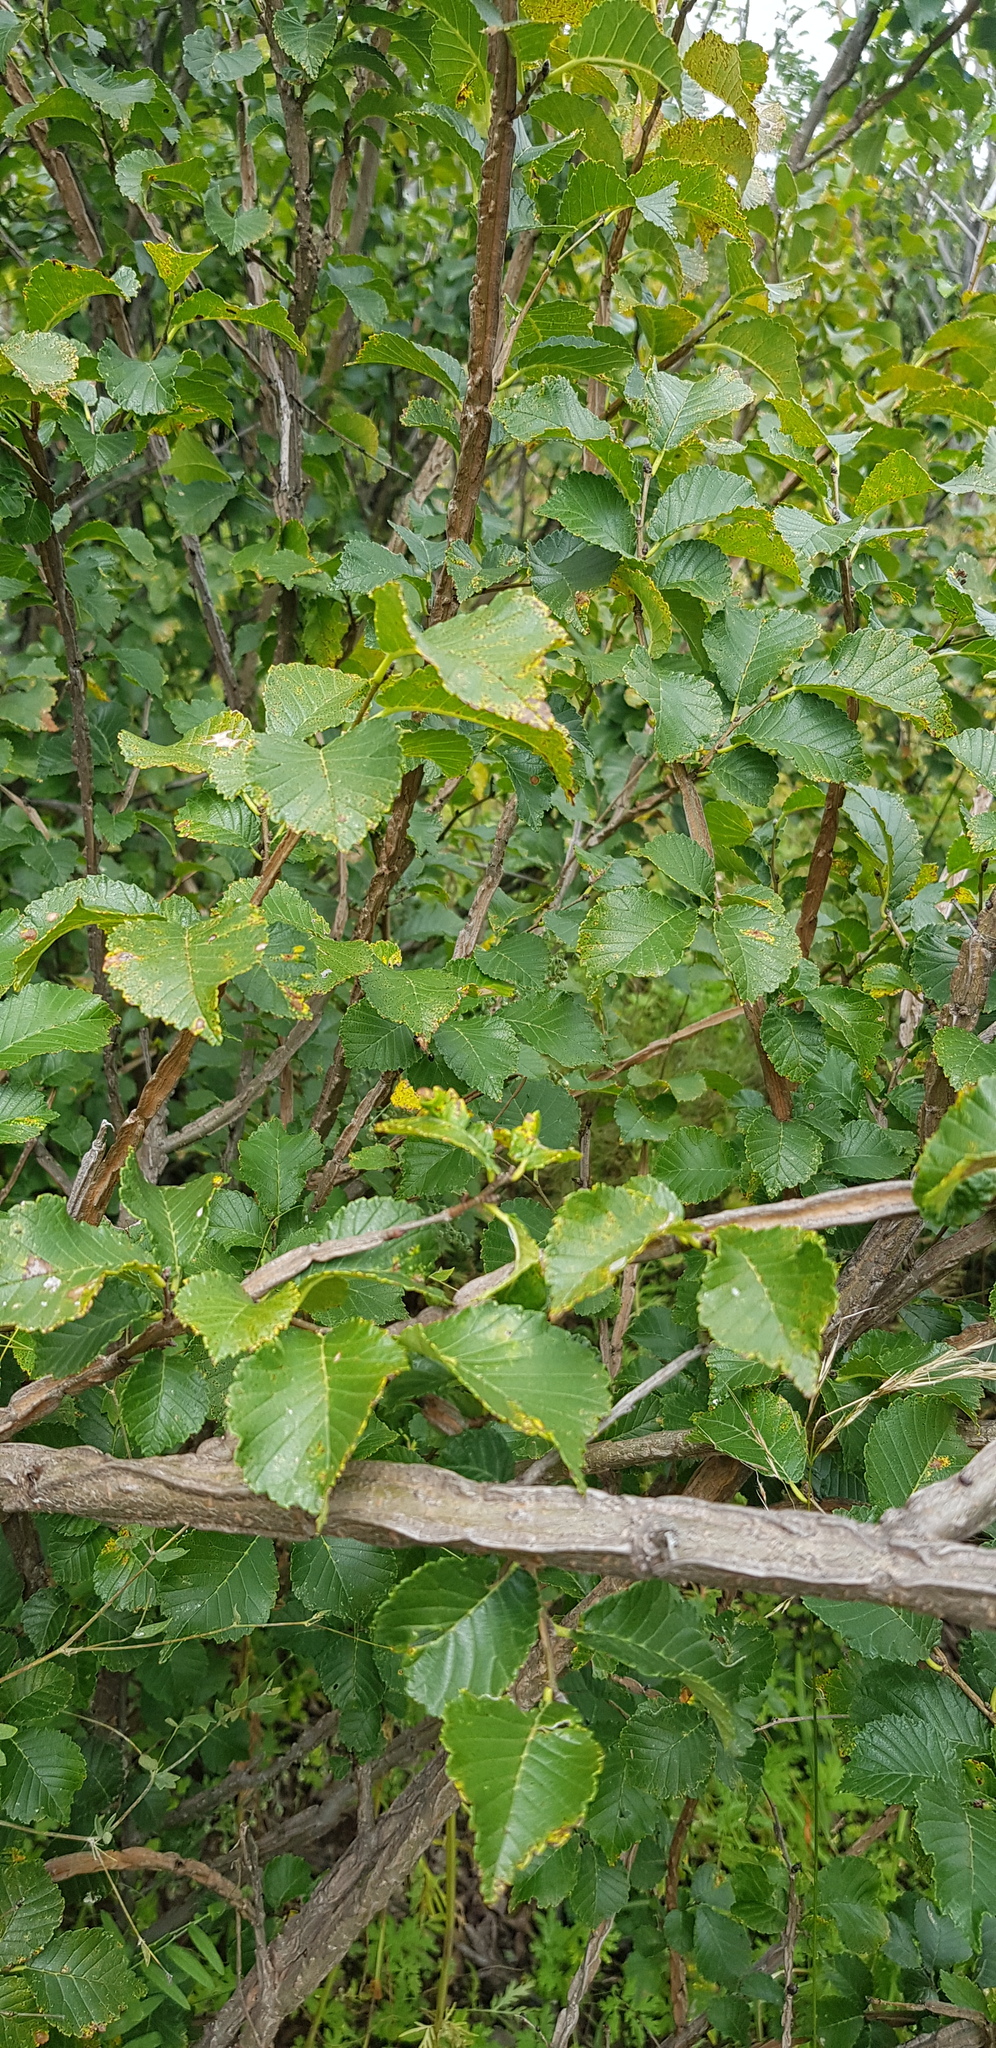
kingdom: Plantae
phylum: Tracheophyta
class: Magnoliopsida
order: Rosales
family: Ulmaceae
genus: Ulmus
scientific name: Ulmus macrocarpa
